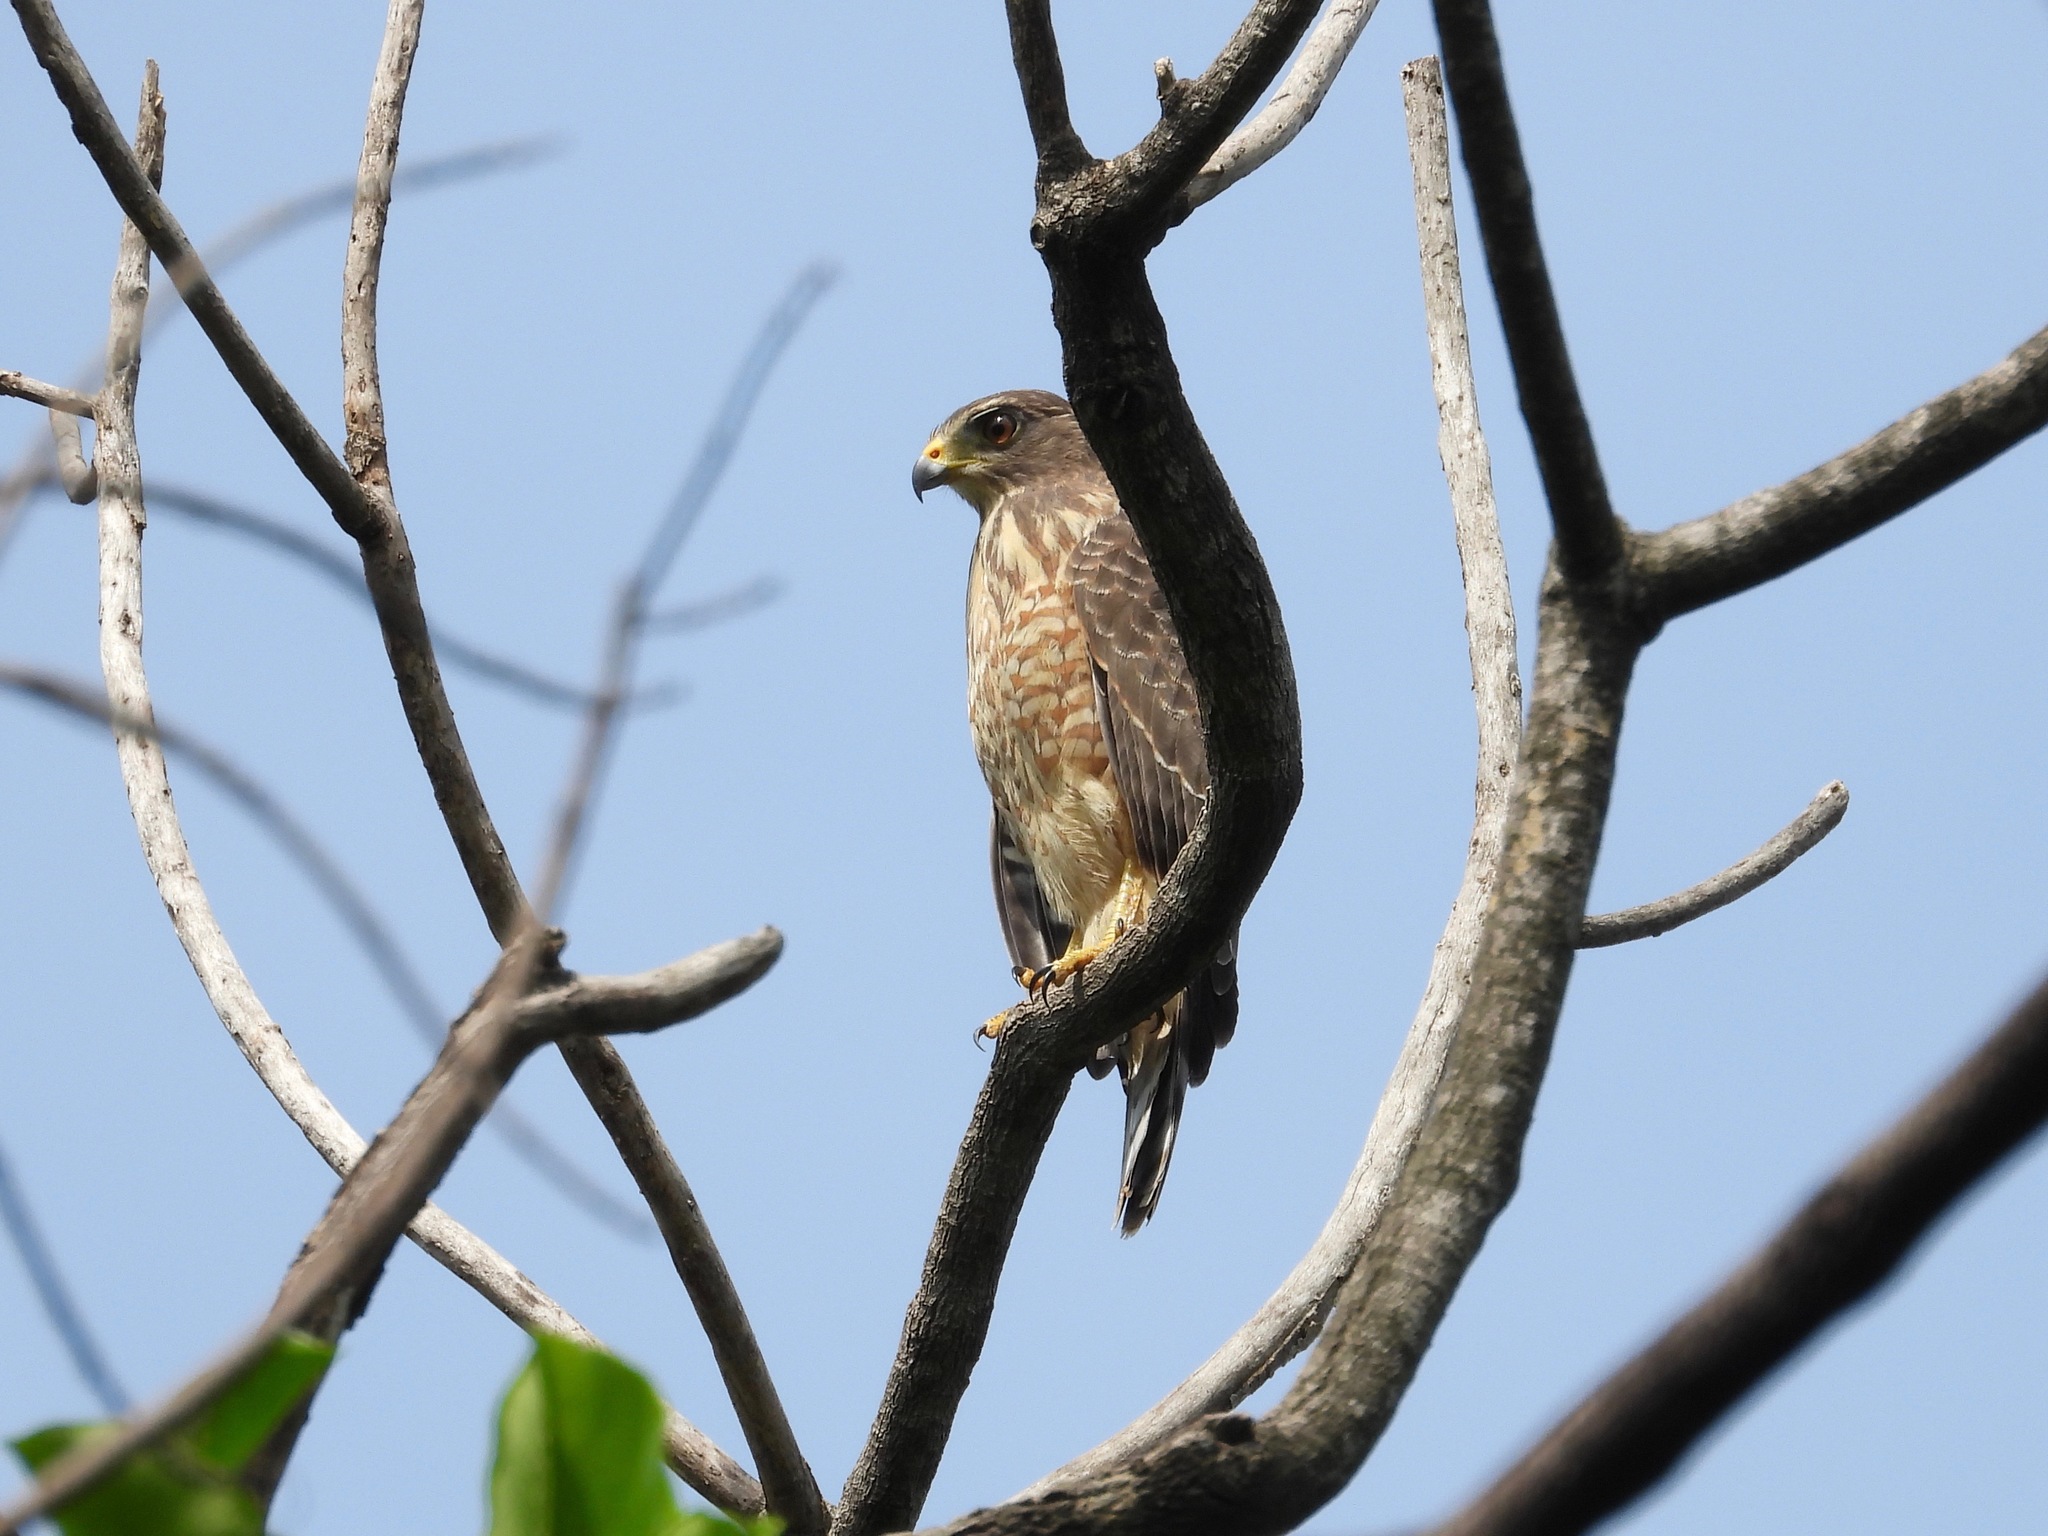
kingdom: Animalia
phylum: Chordata
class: Aves
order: Accipitriformes
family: Accipitridae
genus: Rupornis
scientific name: Rupornis magnirostris
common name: Roadside hawk
